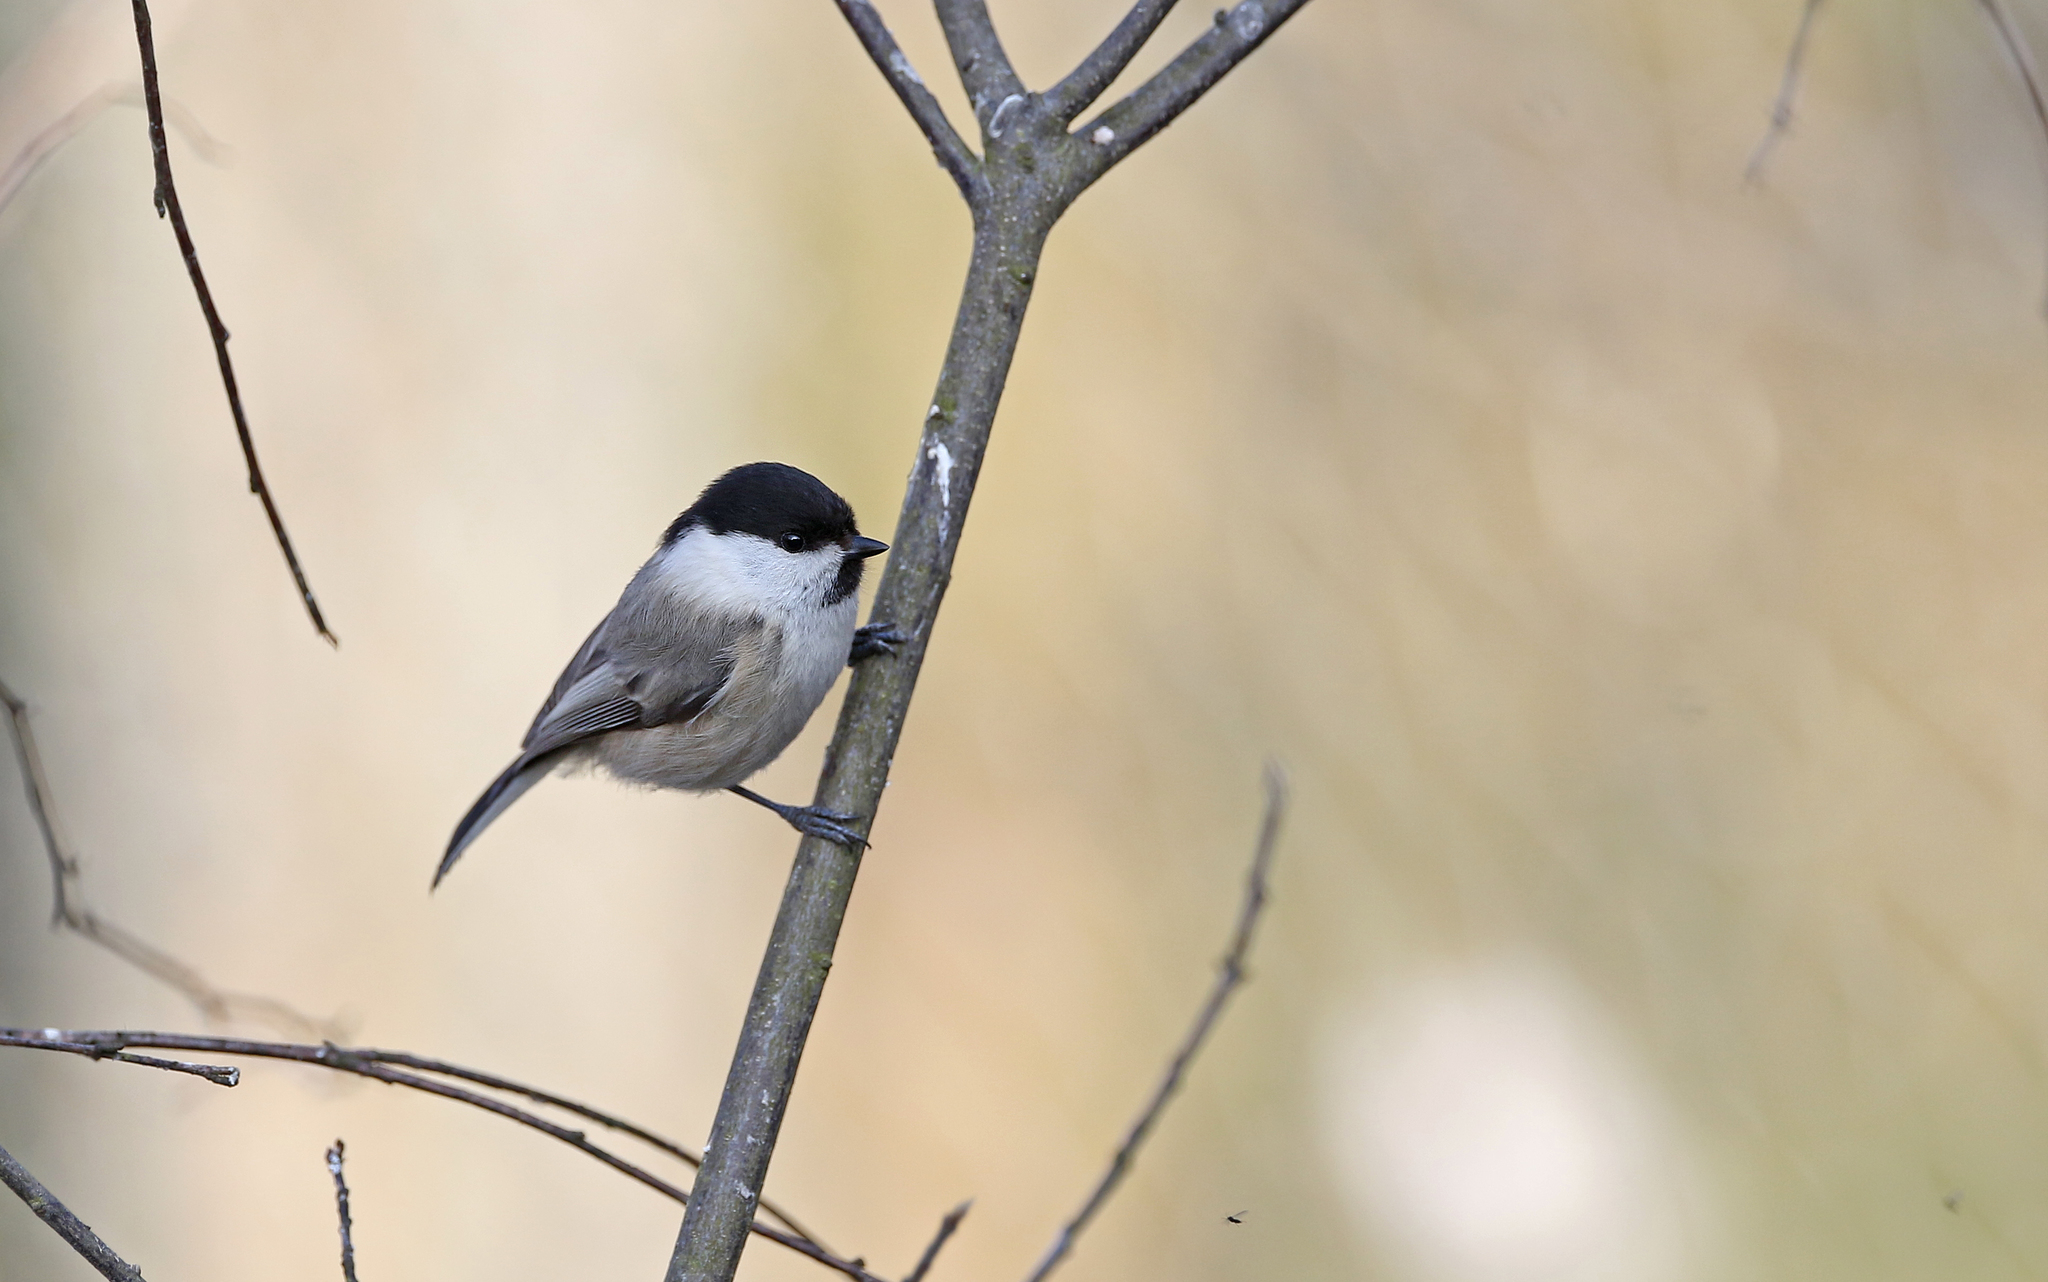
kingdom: Animalia
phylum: Chordata
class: Aves
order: Passeriformes
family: Paridae
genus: Poecile
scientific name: Poecile montanus
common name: Willow tit
